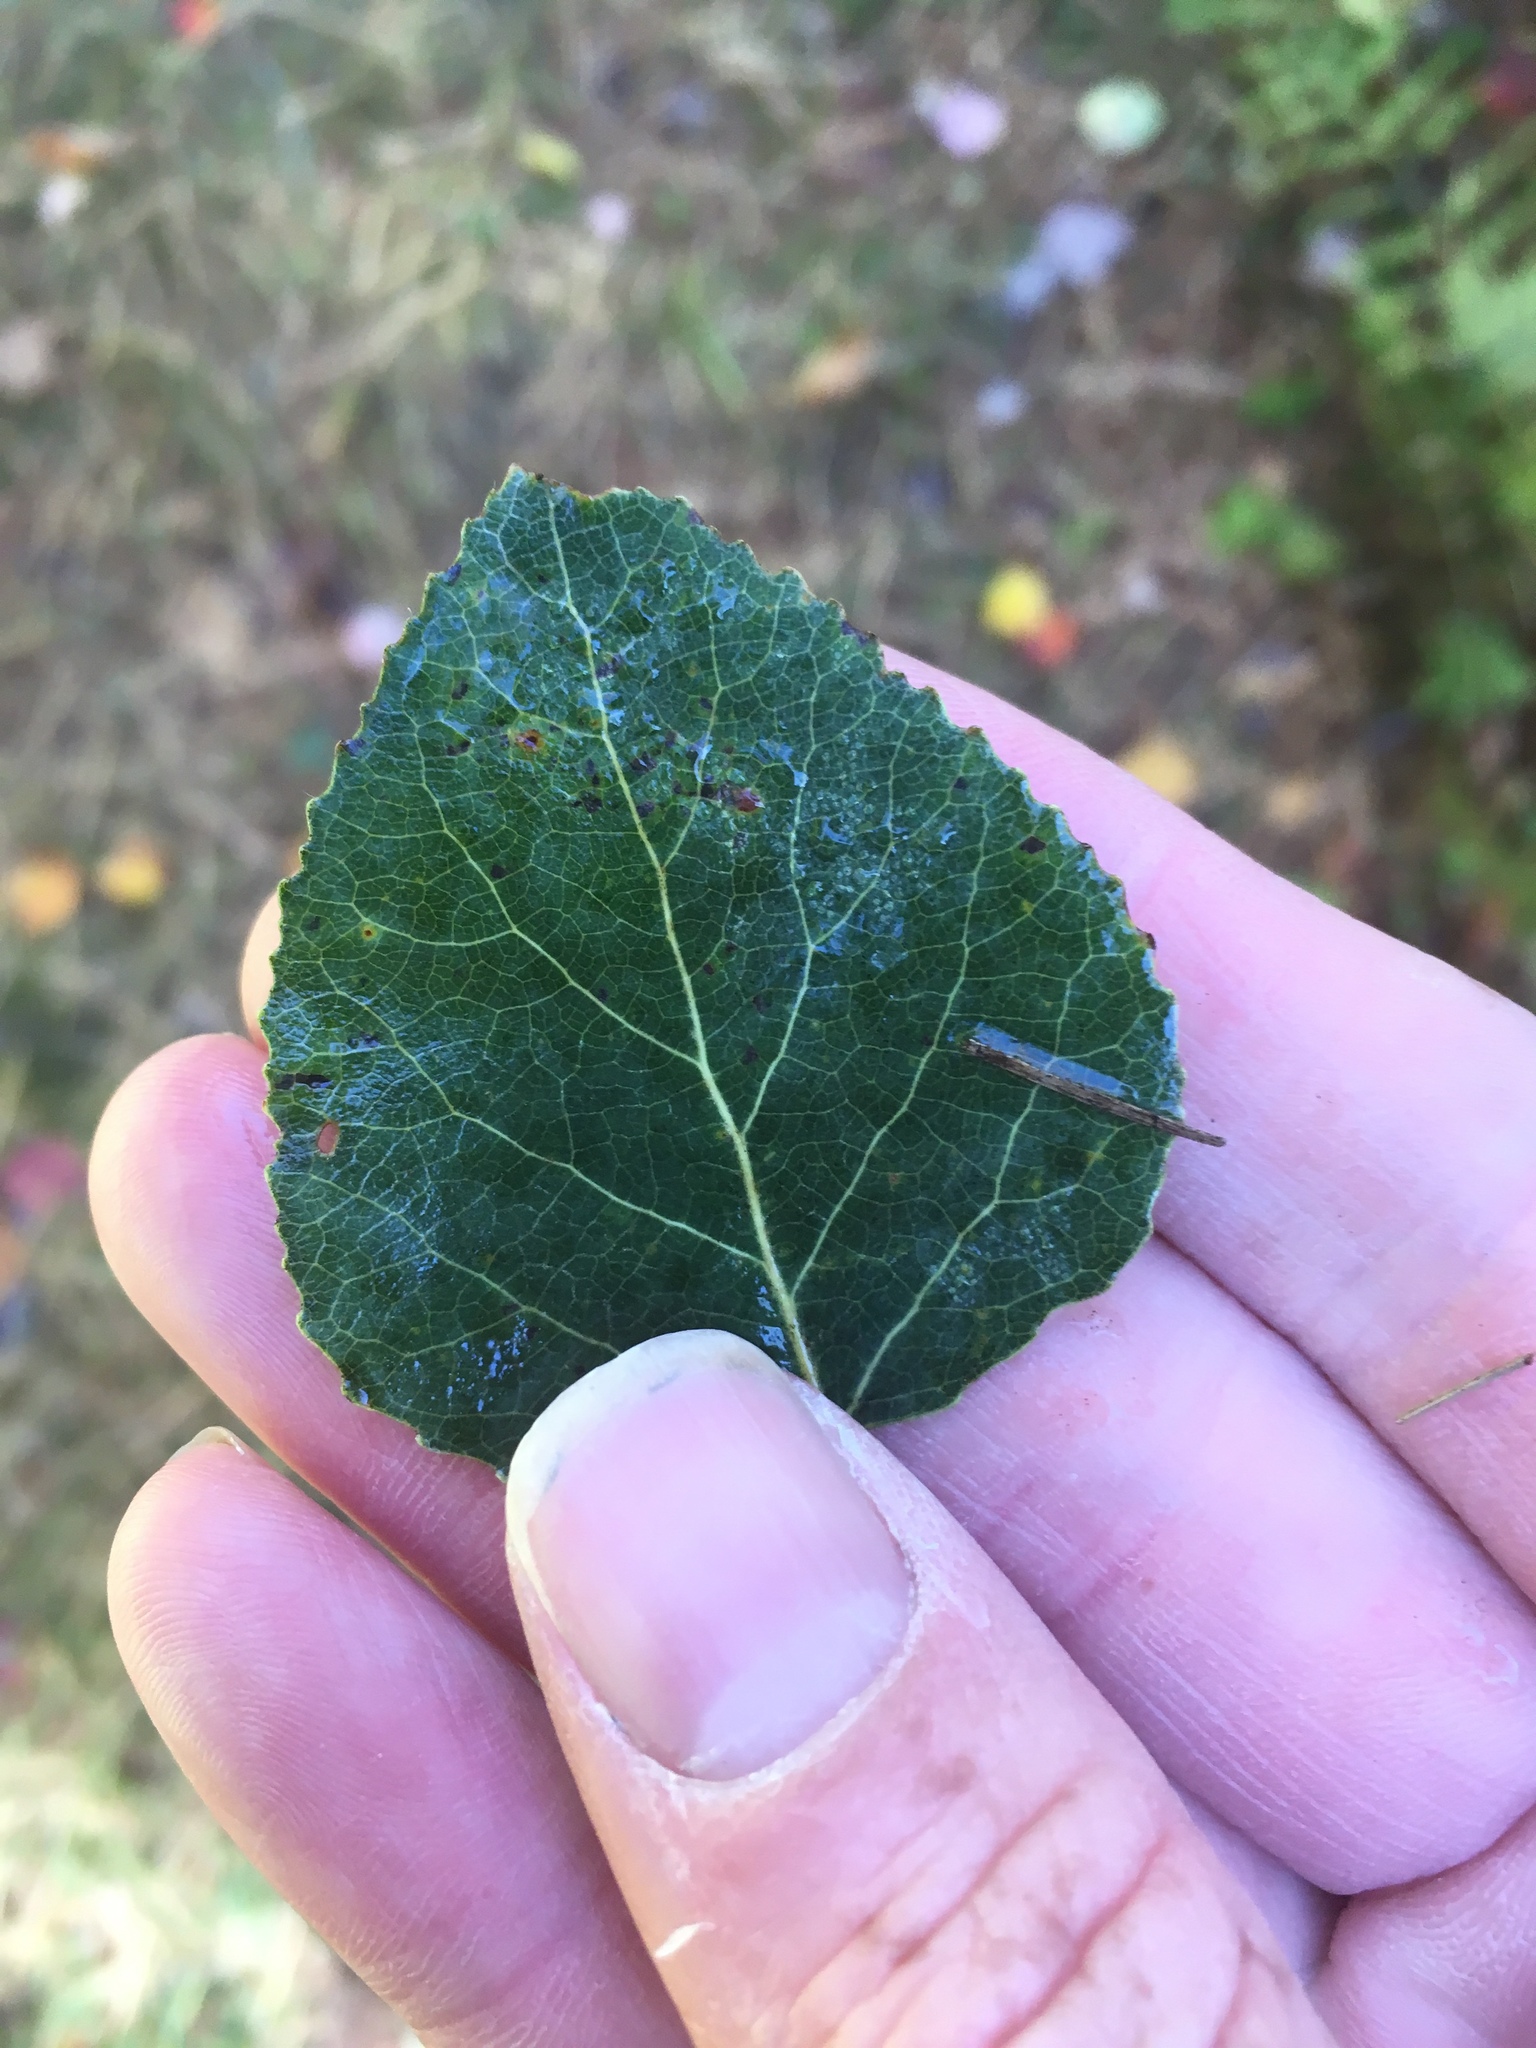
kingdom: Plantae
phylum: Tracheophyta
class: Magnoliopsida
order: Malpighiales
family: Salicaceae
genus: Populus
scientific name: Populus tremuloides
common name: Quaking aspen
